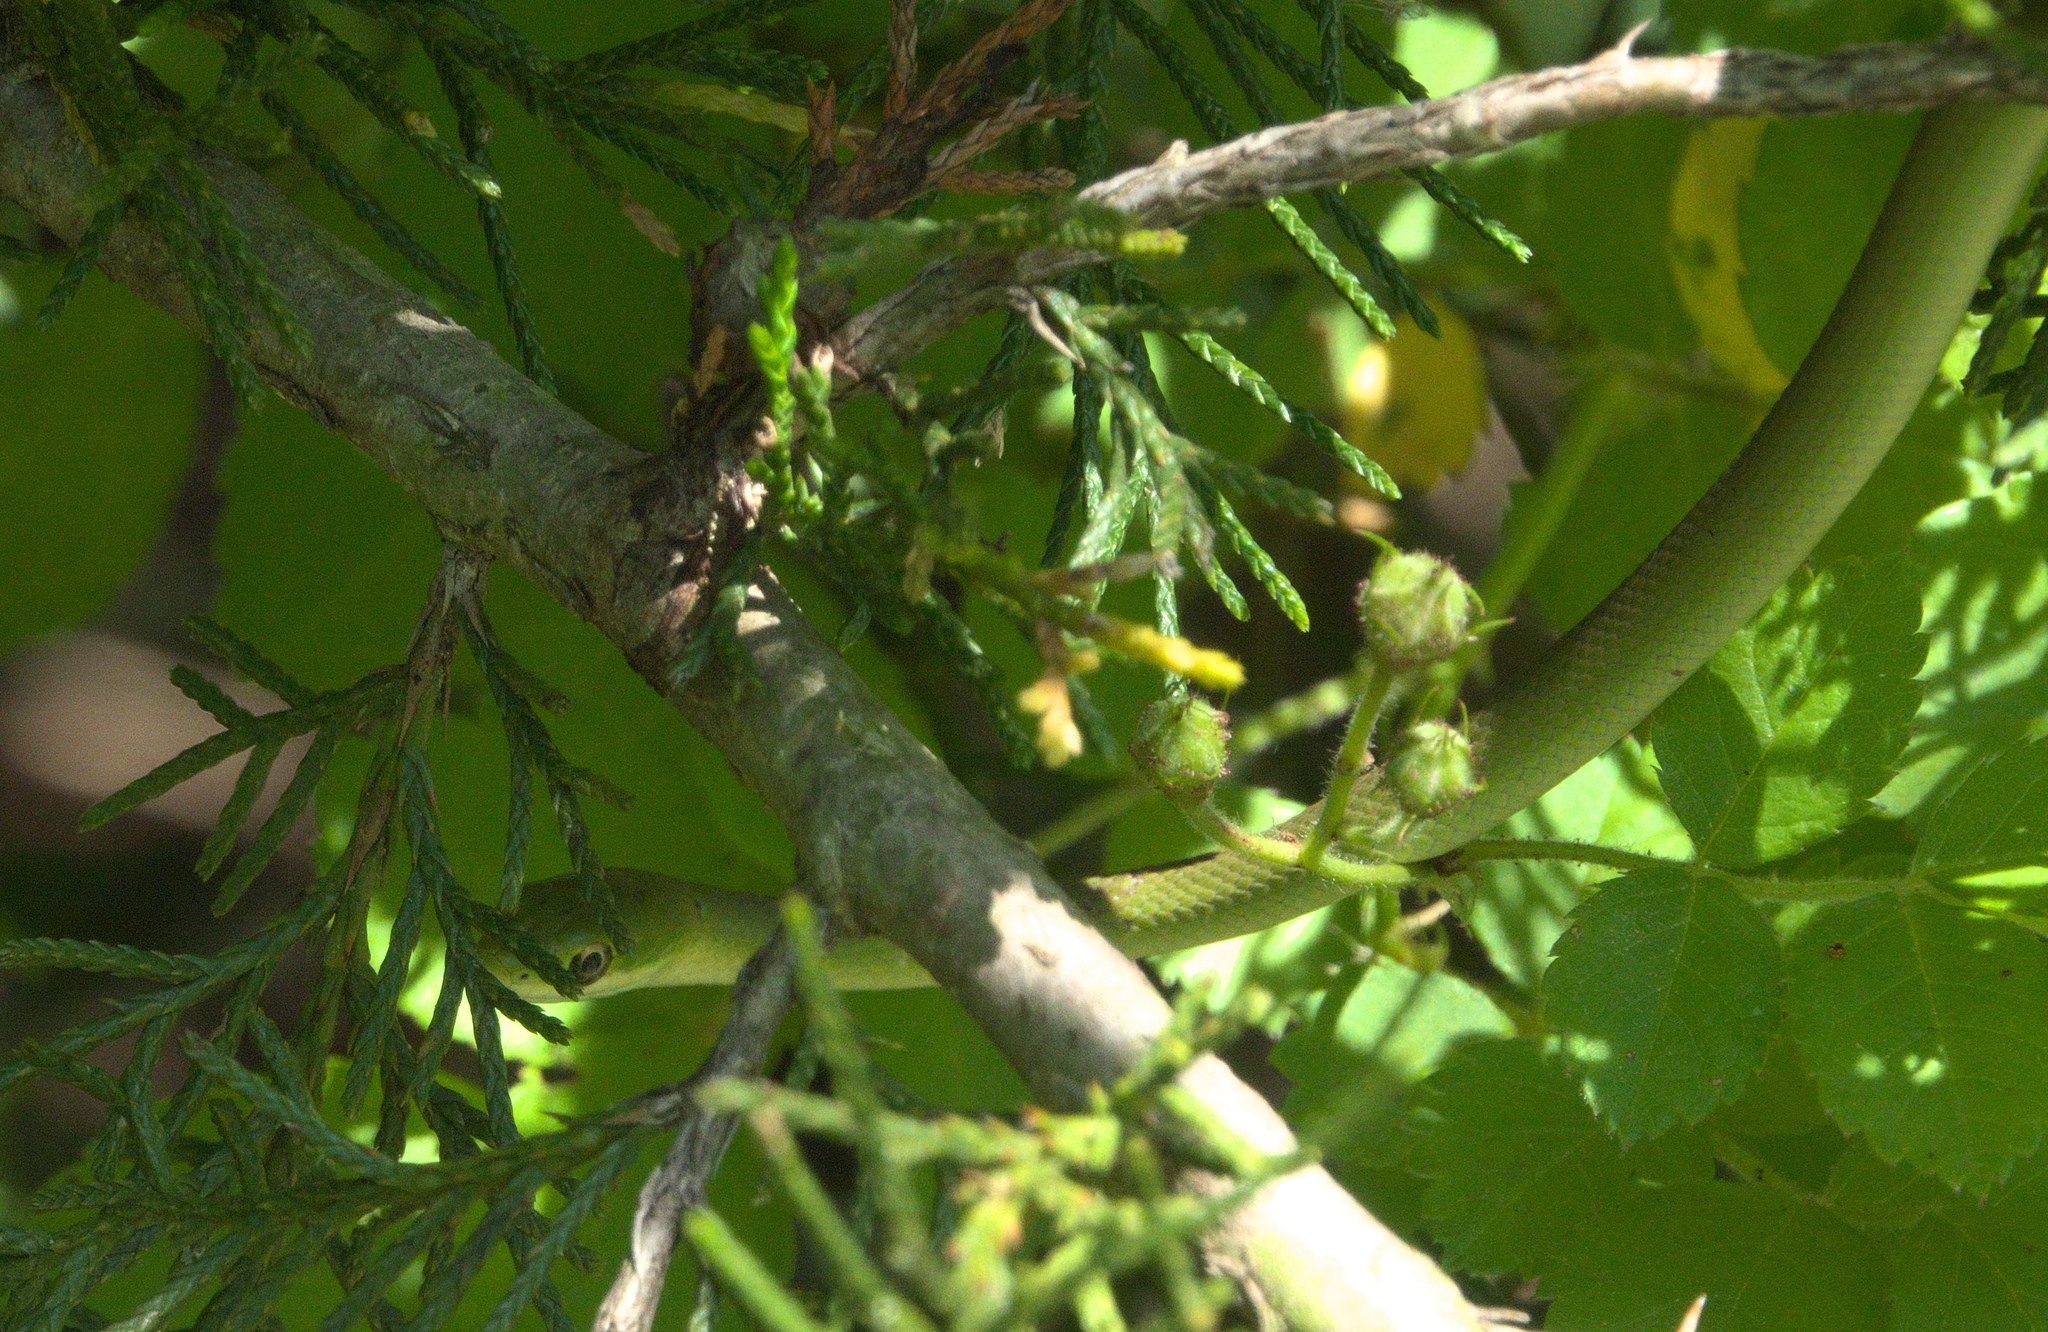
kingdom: Animalia
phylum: Chordata
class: Squamata
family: Colubridae
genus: Opheodrys
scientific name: Opheodrys aestivus
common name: Rough greensnake
